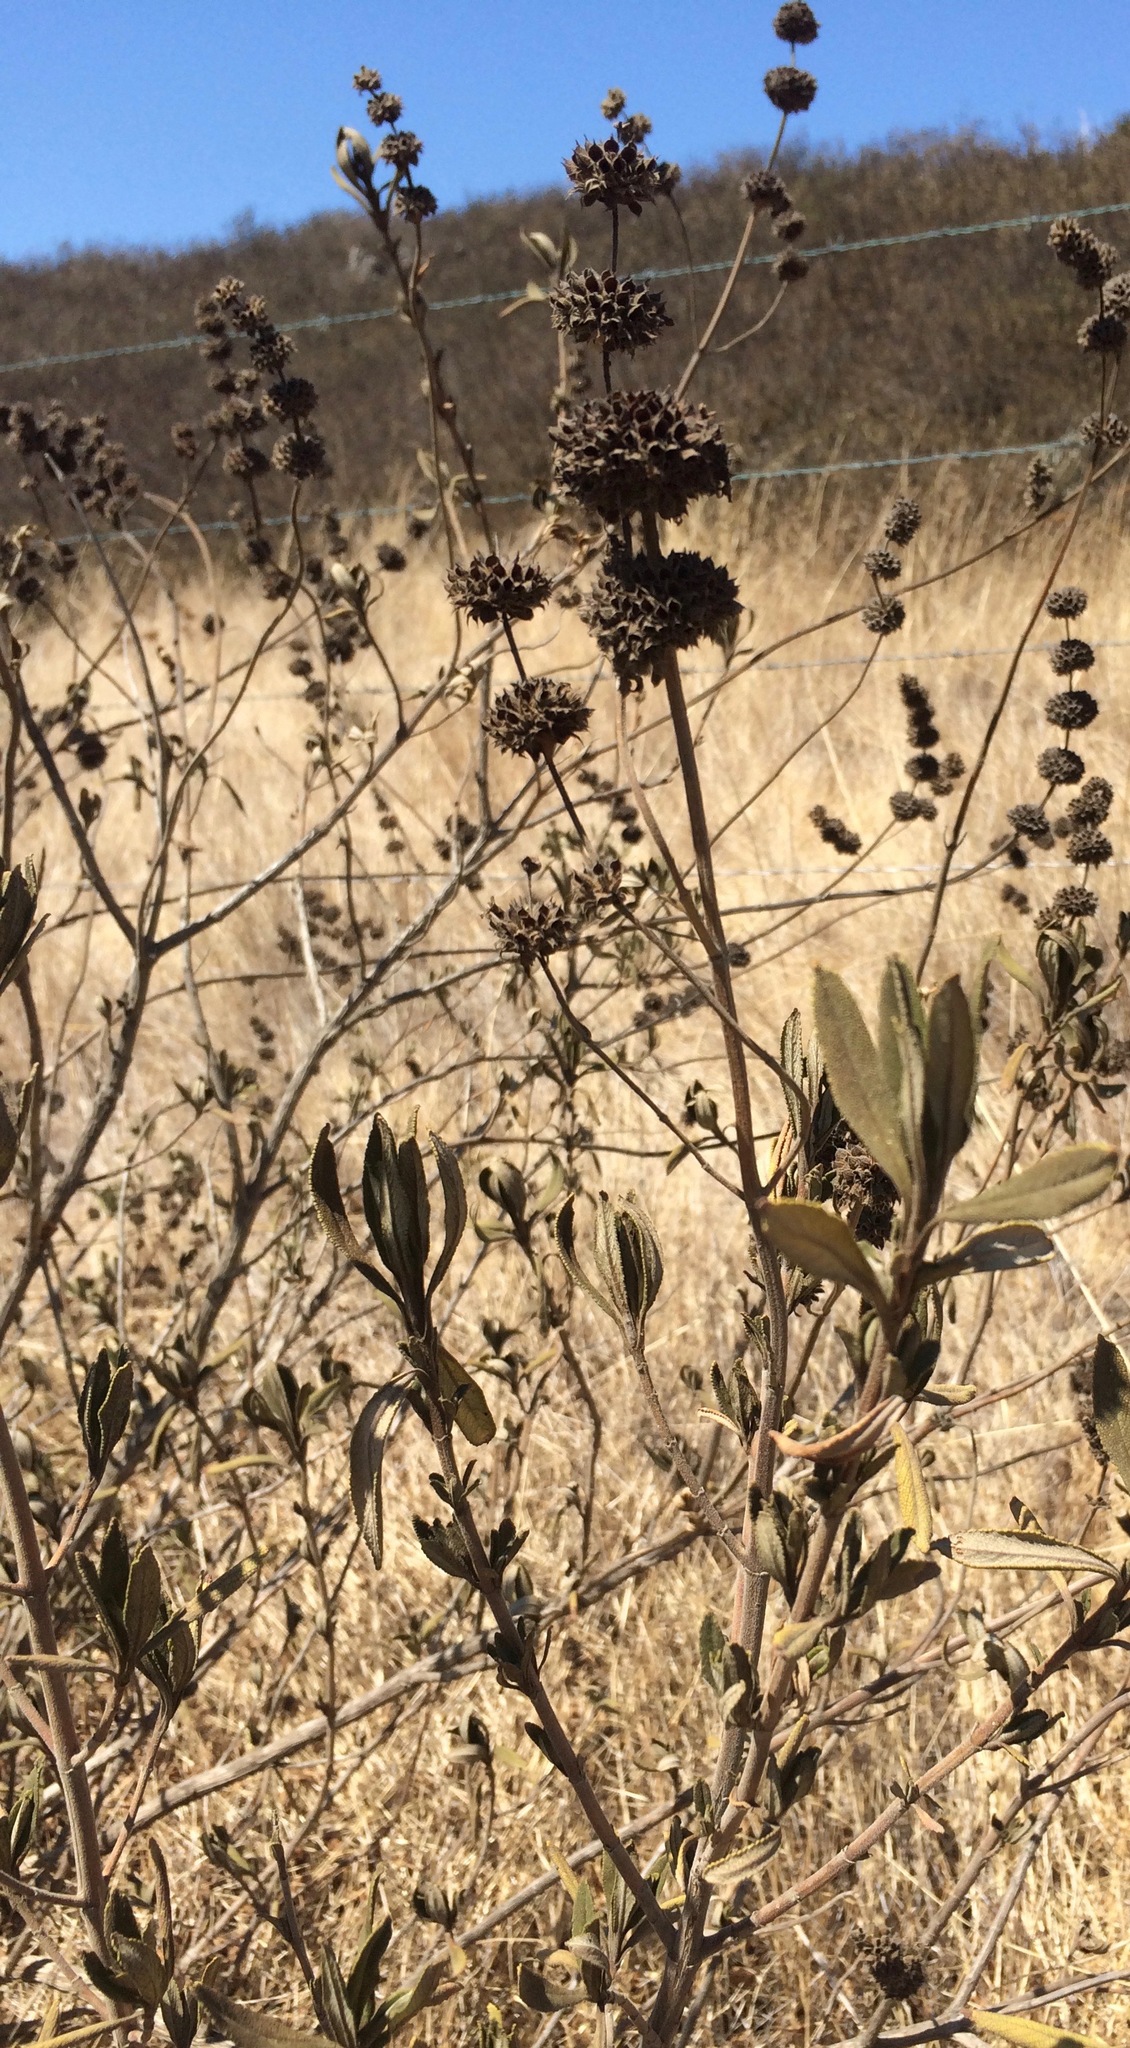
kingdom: Plantae
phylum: Tracheophyta
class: Magnoliopsida
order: Lamiales
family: Lamiaceae
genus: Salvia
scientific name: Salvia mellifera
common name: Black sage
